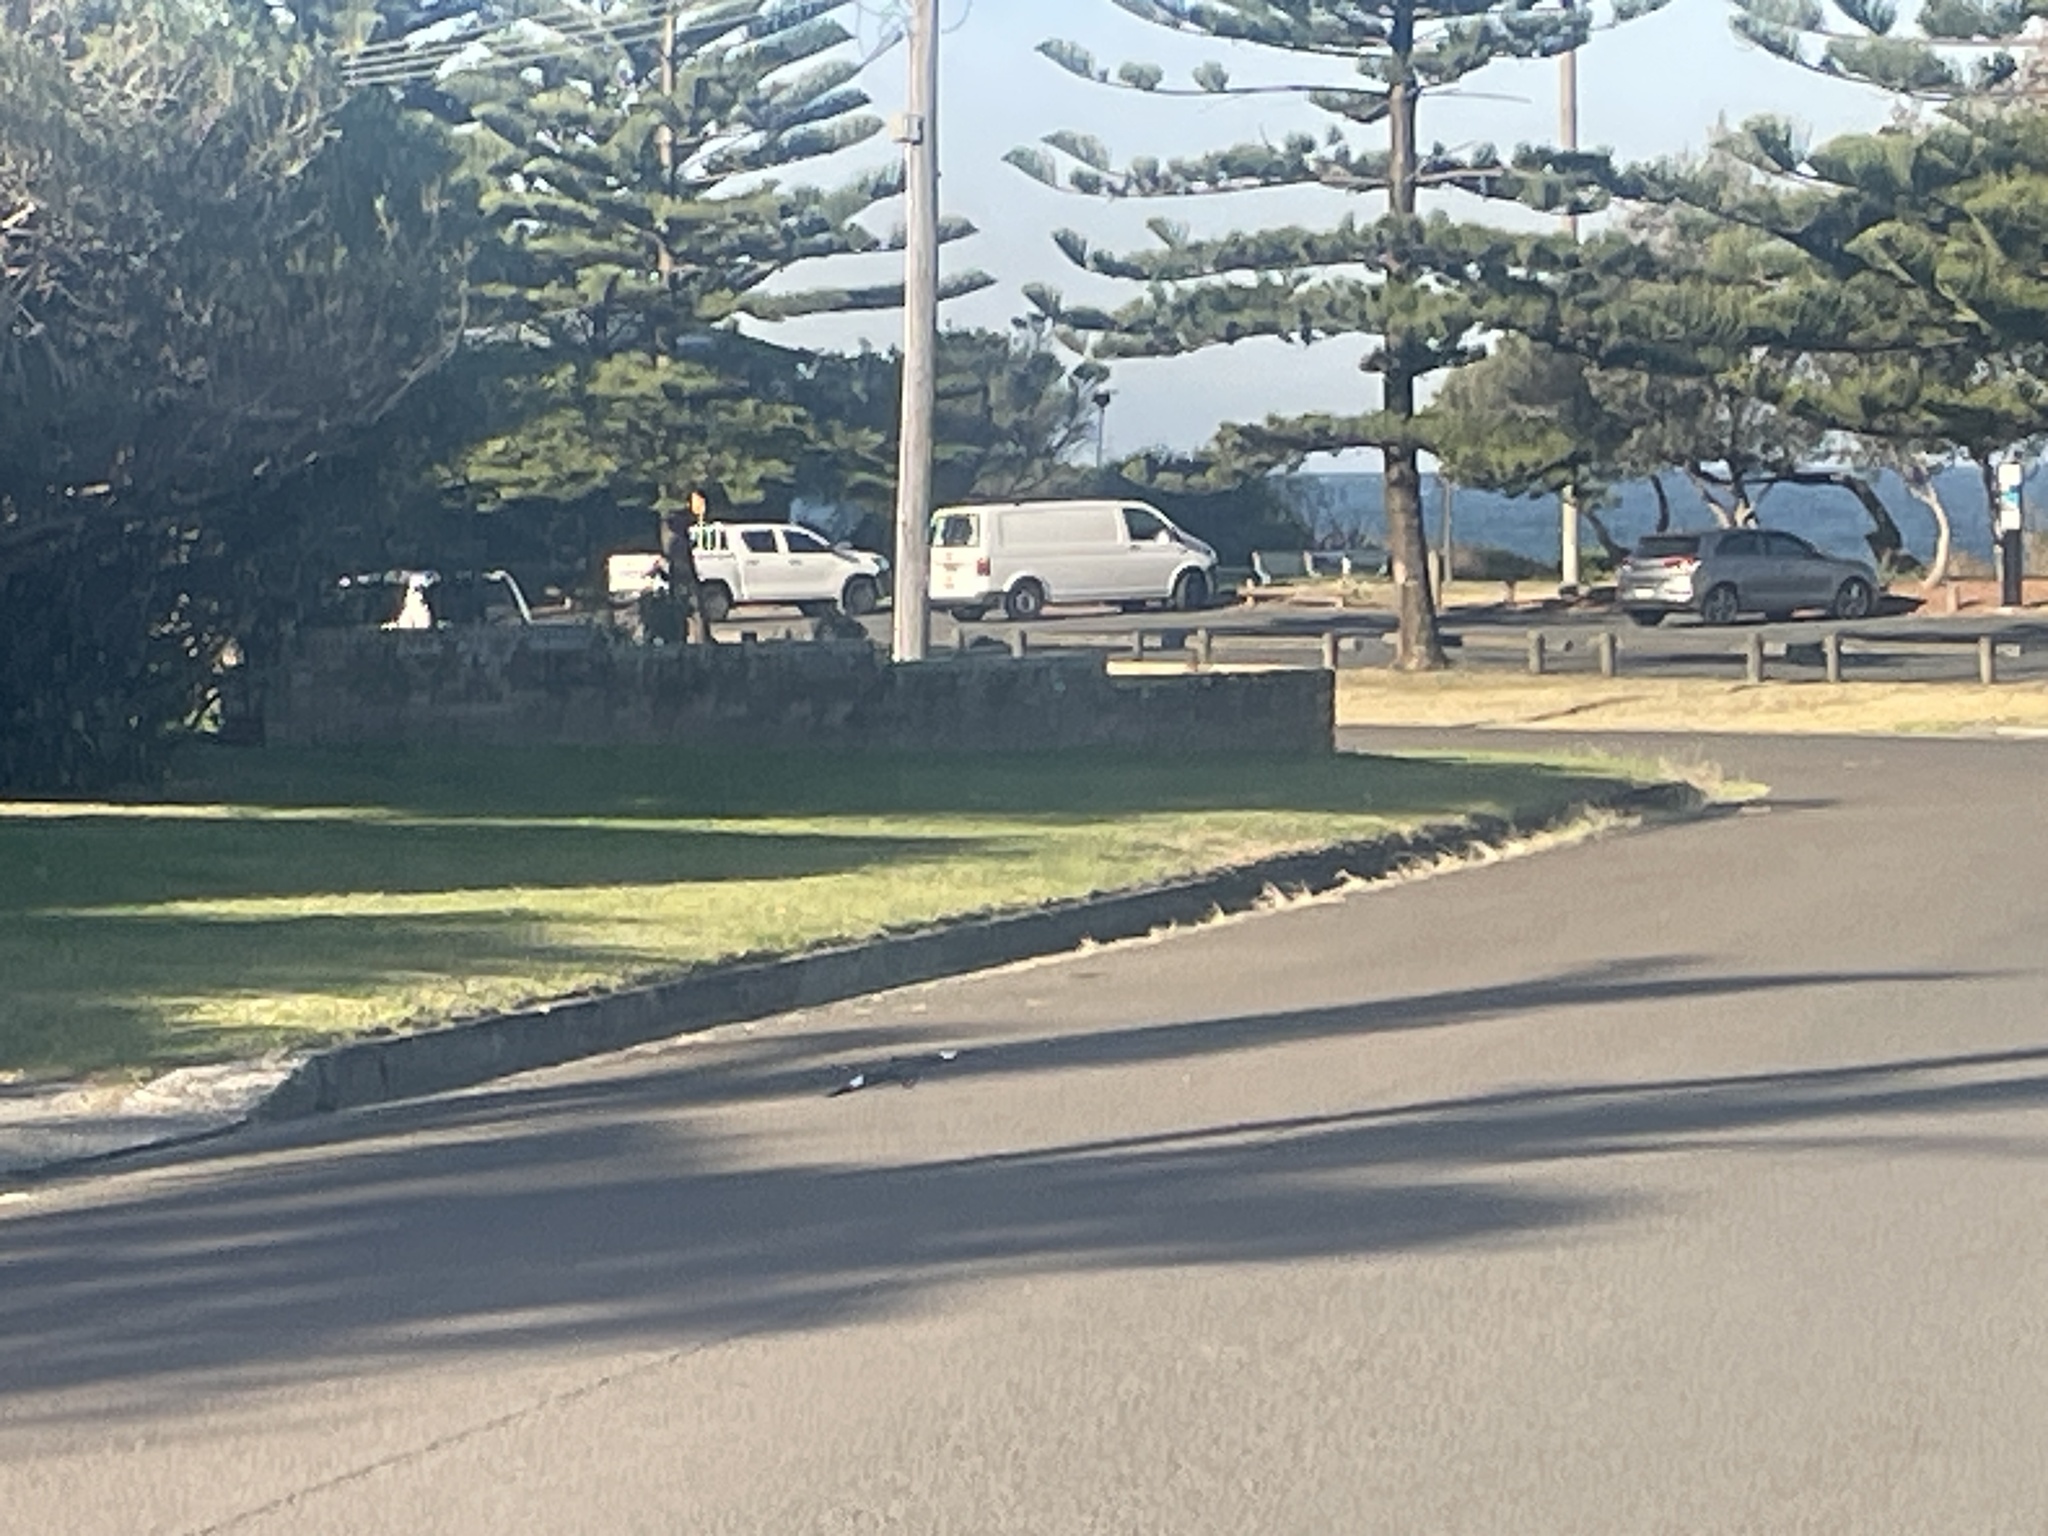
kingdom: Animalia
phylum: Chordata
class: Aves
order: Passeriformes
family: Sturnidae
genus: Acridotheres
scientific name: Acridotheres tristis
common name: Common myna
